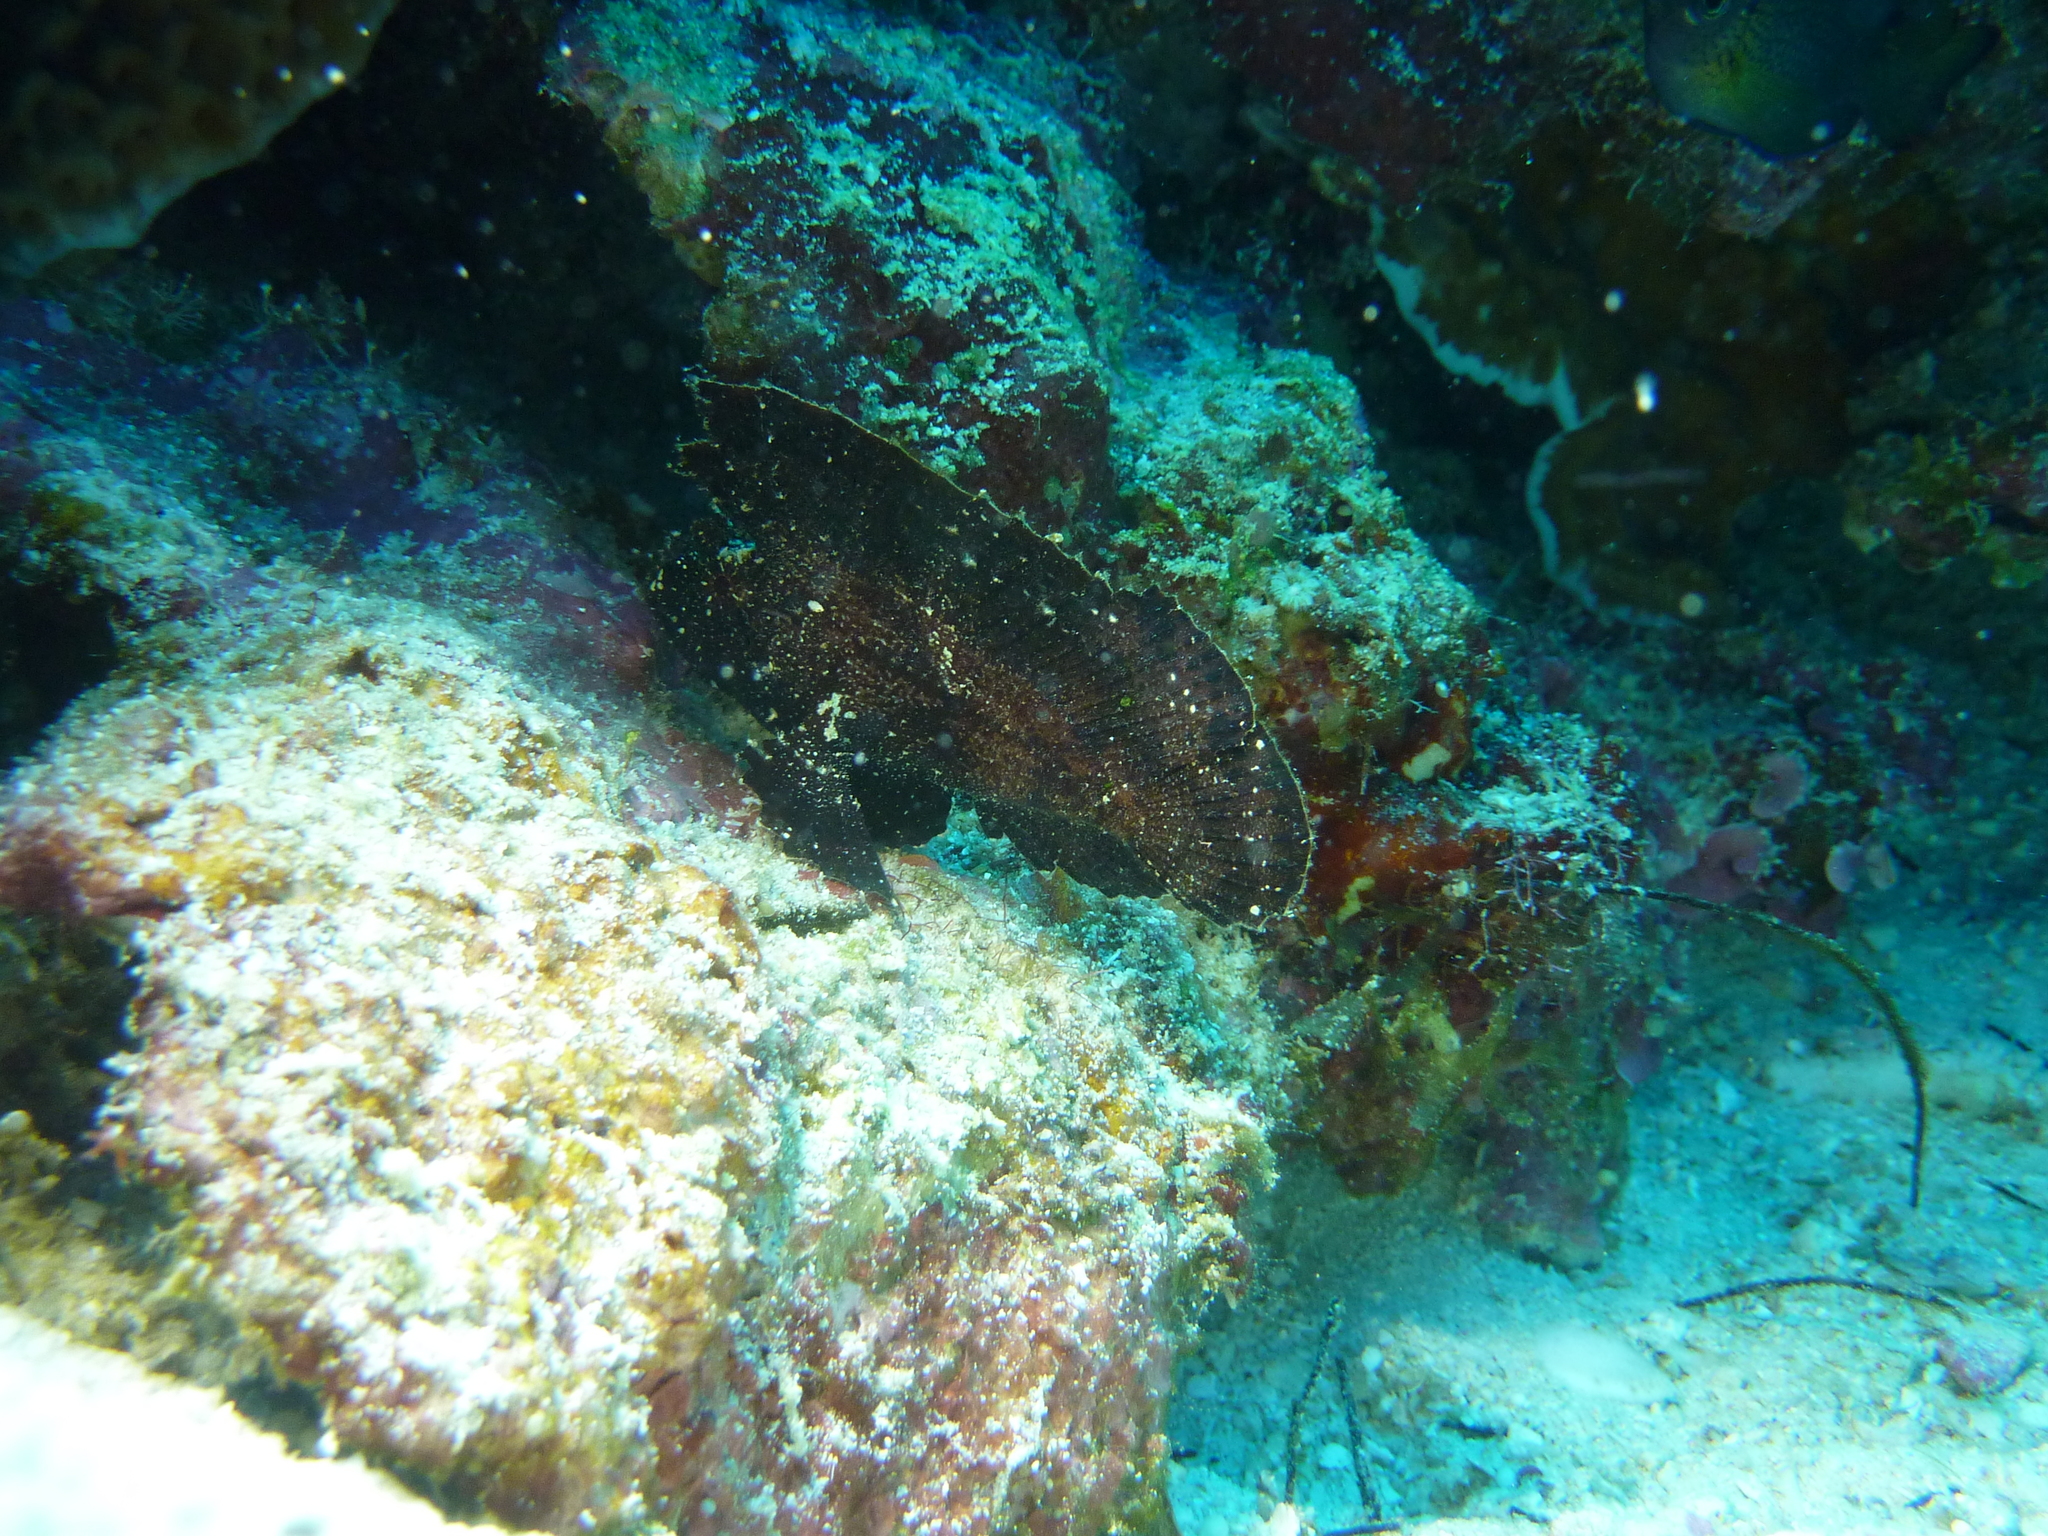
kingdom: Animalia
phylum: Chordata
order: Scorpaeniformes
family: Scorpaenidae
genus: Taenianotus
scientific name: Taenianotus triacanthus
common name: Leaf scorpionfish
